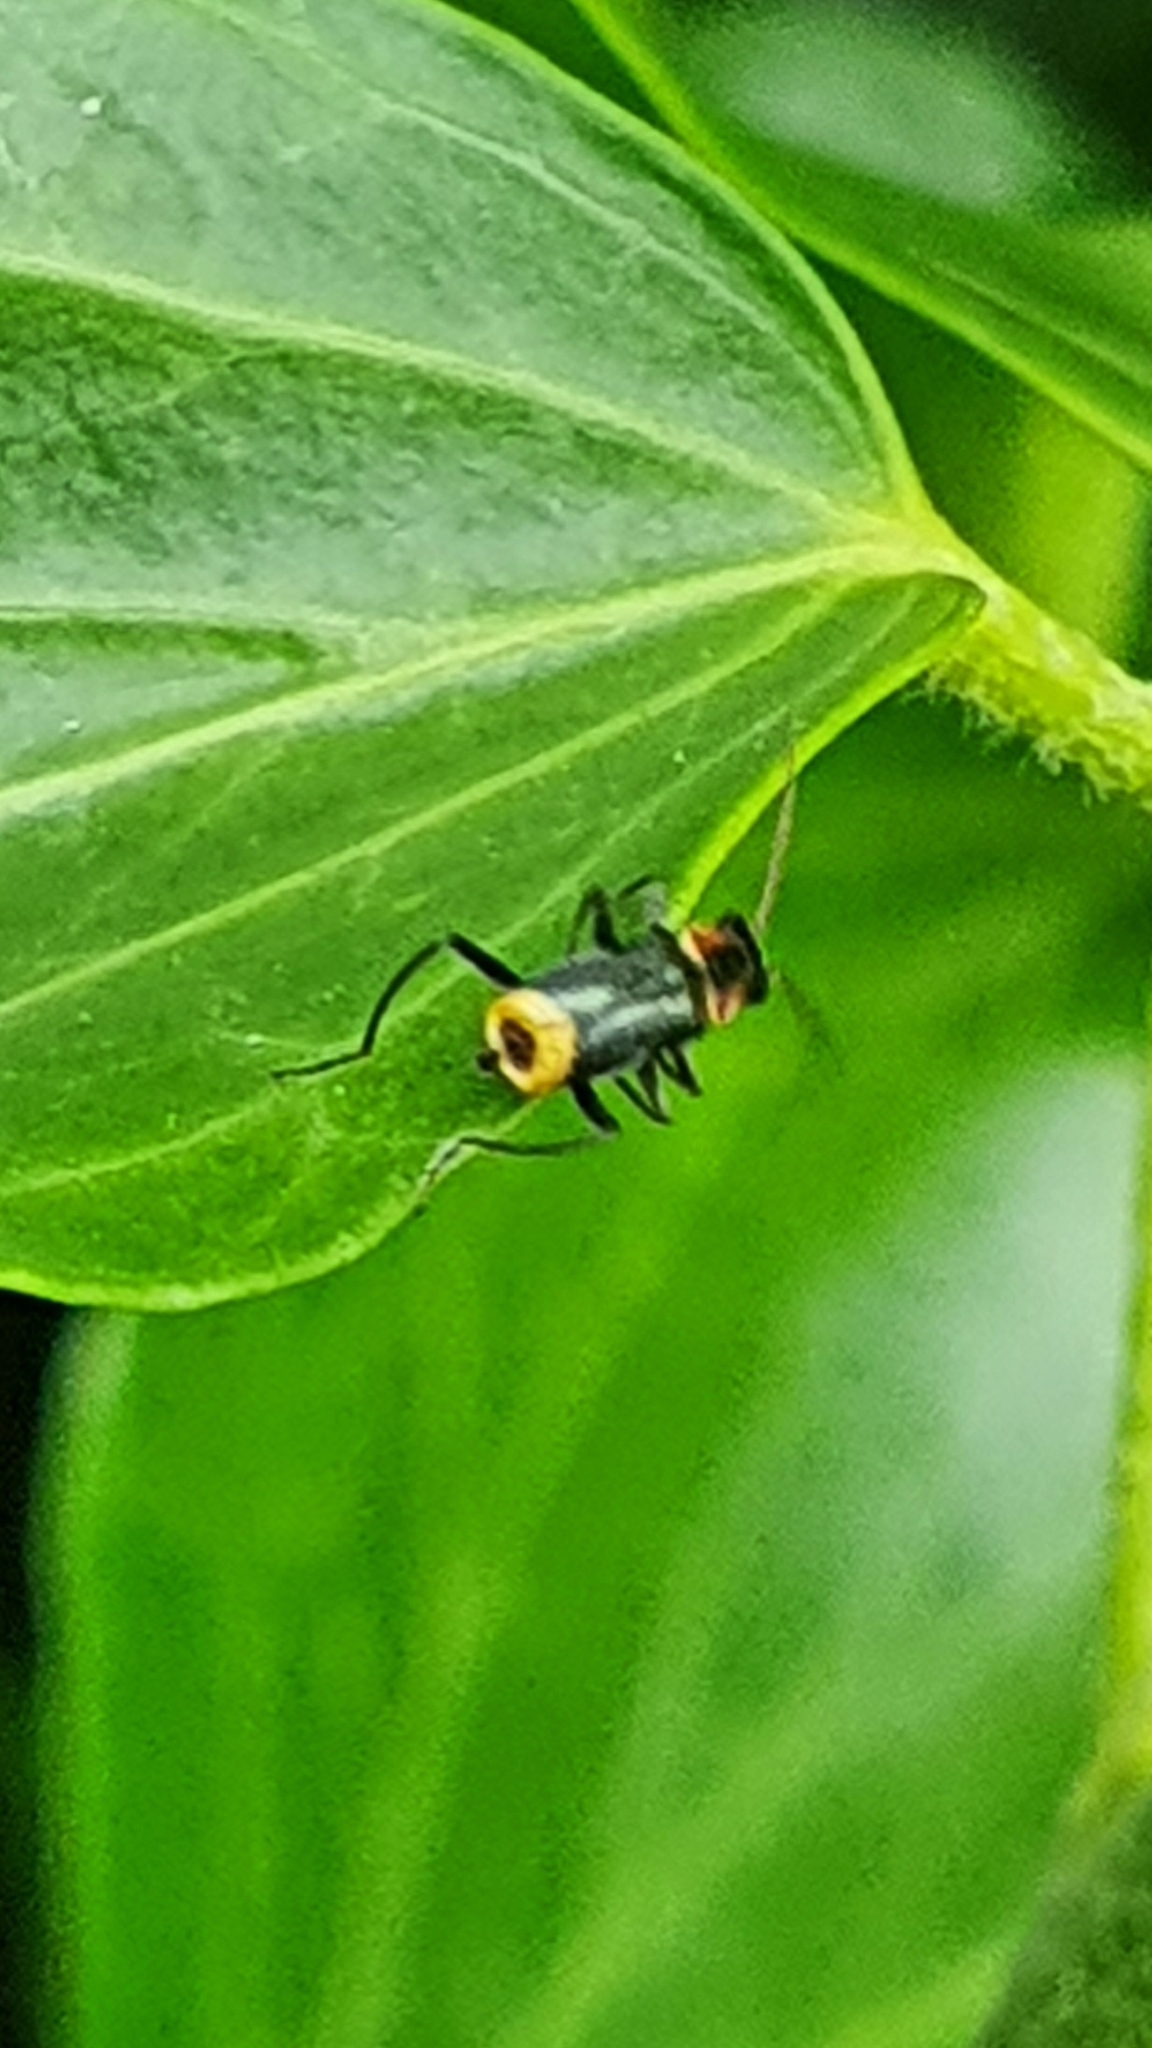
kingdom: Animalia
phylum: Arthropoda
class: Insecta
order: Coleoptera
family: Melyridae
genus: Axinotarsus
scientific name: Axinotarsus pulicarius
